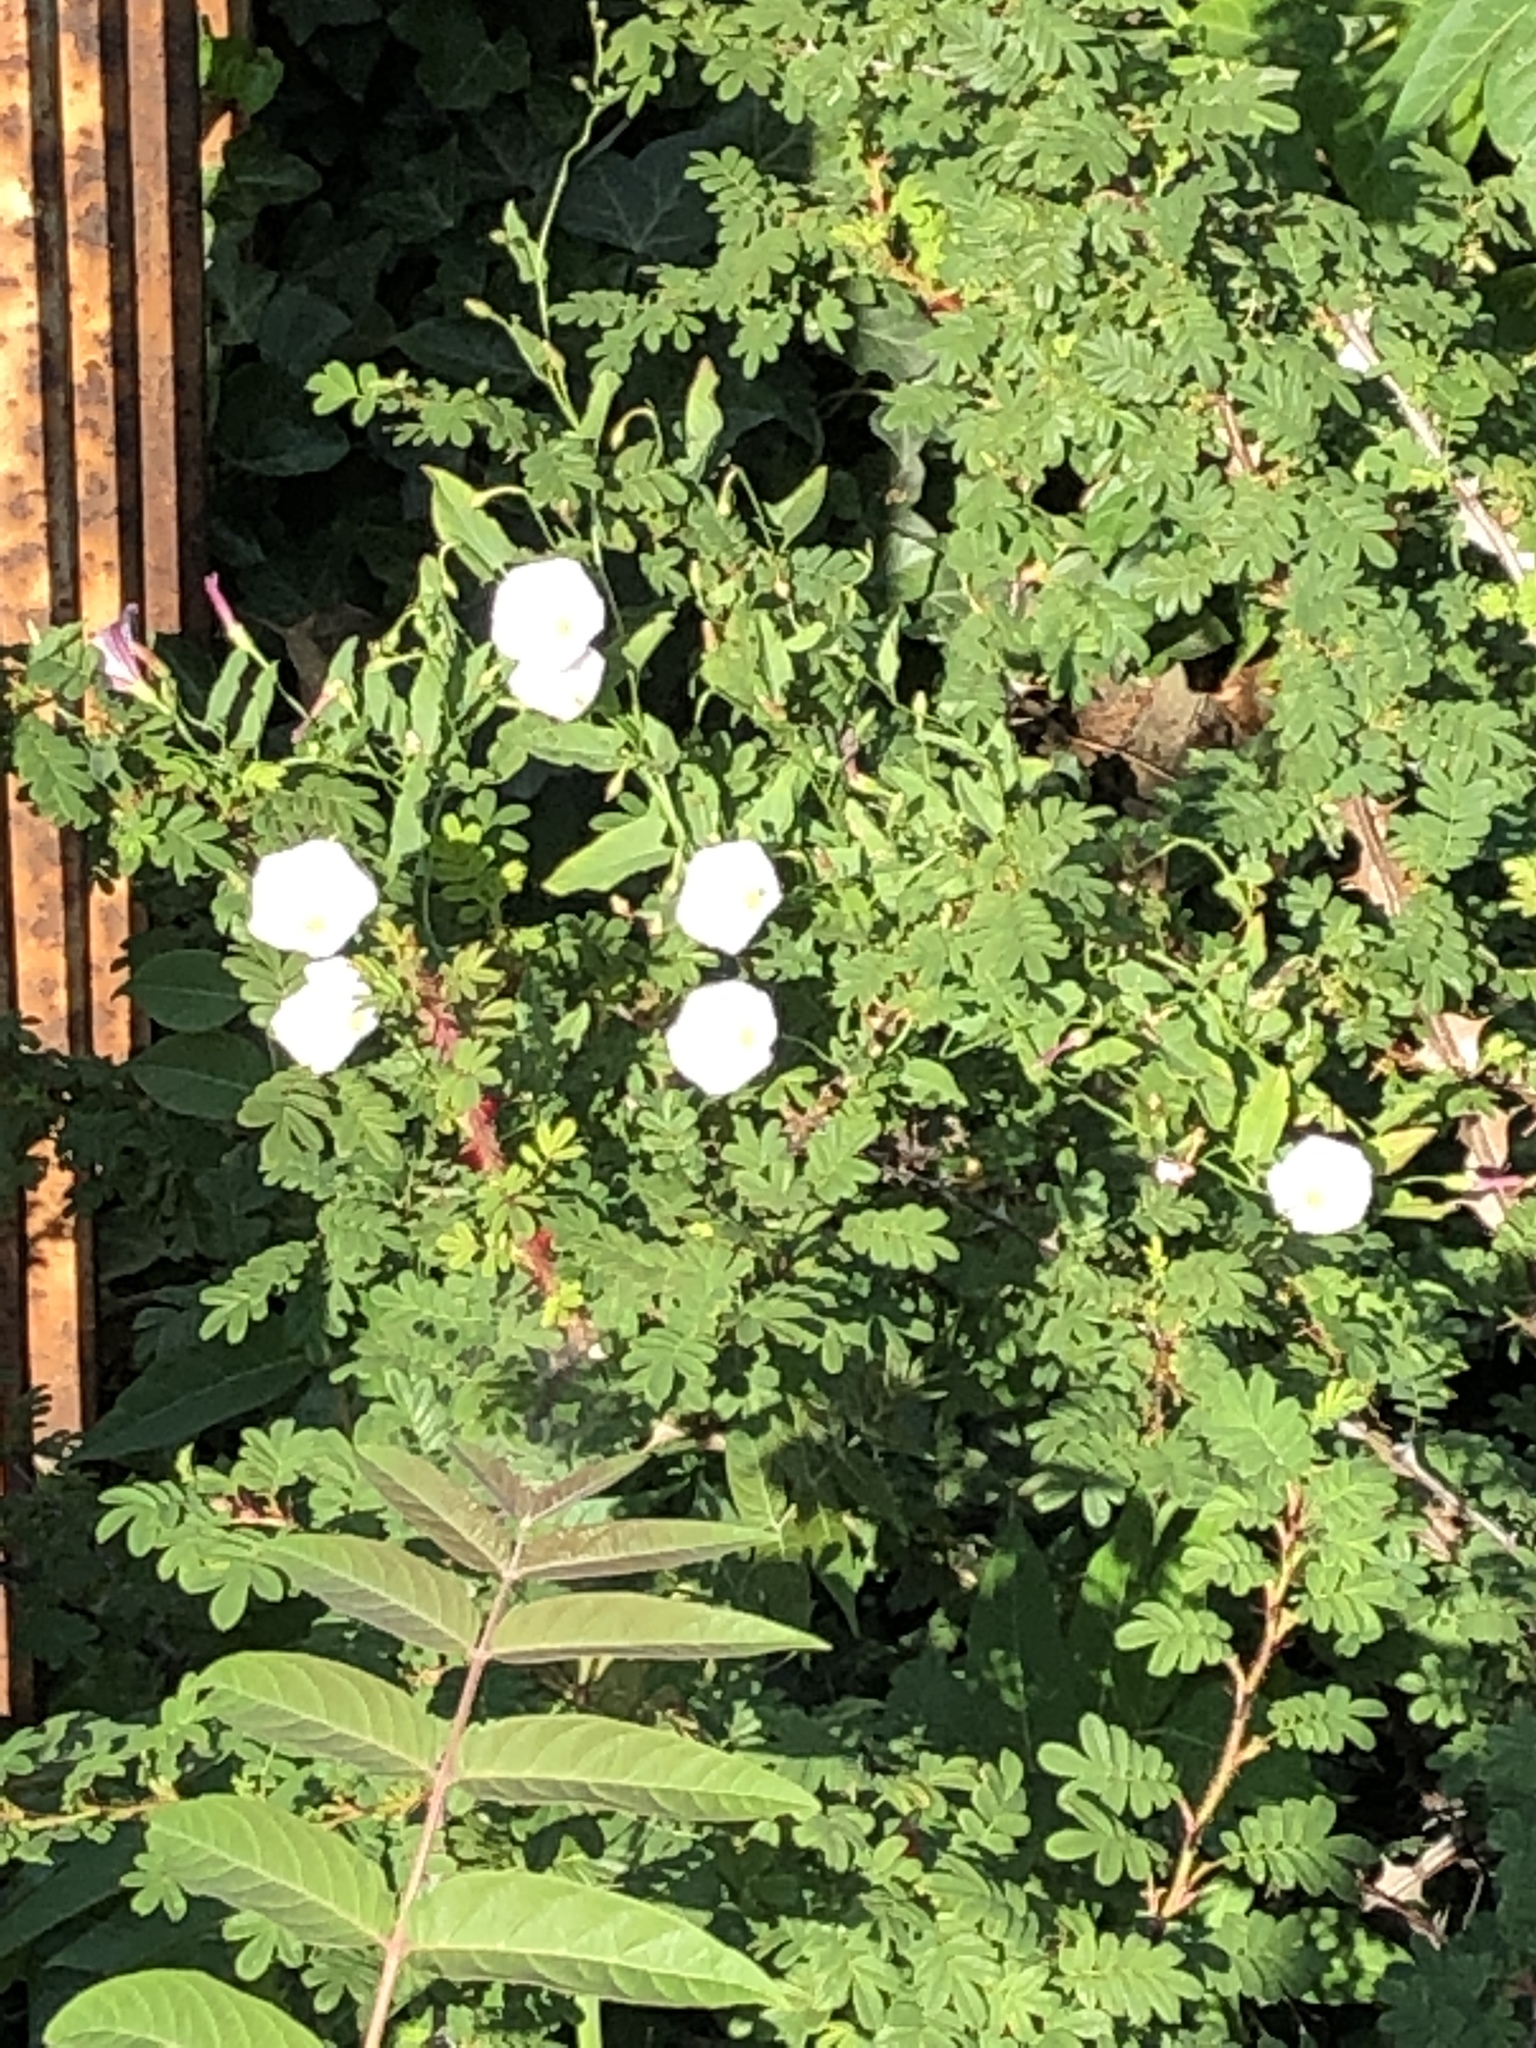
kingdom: Plantae
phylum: Tracheophyta
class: Magnoliopsida
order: Solanales
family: Convolvulaceae
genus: Convolvulus
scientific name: Convolvulus arvensis
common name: Field bindweed
